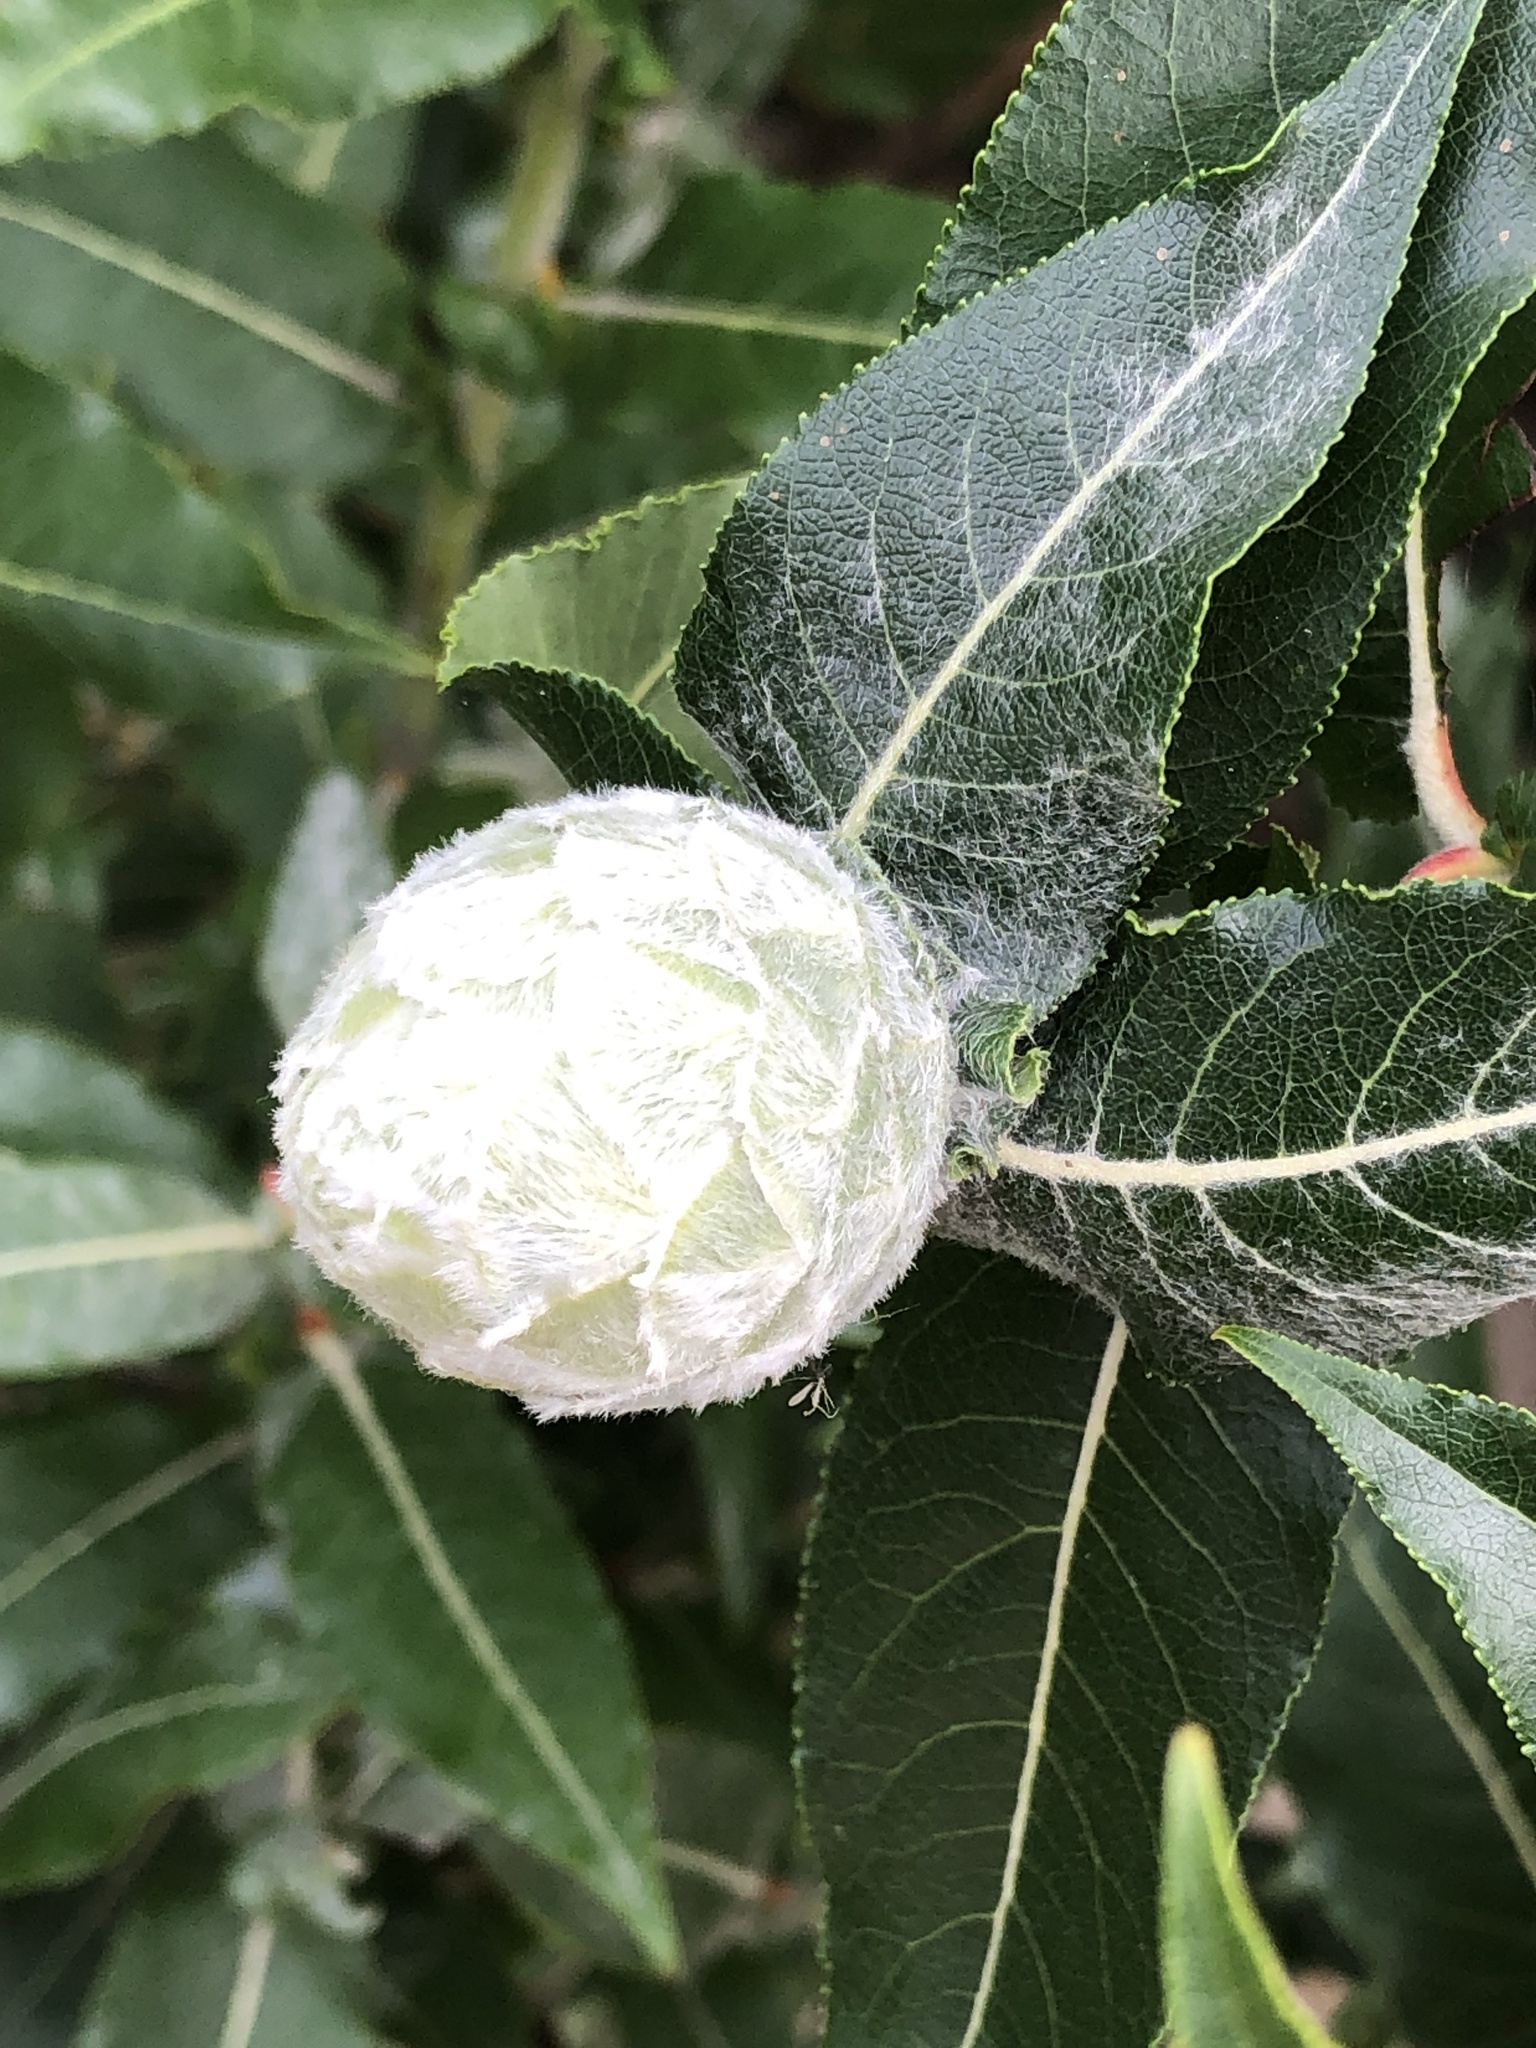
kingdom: Animalia
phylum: Arthropoda
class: Insecta
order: Diptera
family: Cecidomyiidae
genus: Rabdophaga
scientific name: Rabdophaga strobiloides
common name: Willow pinecone gall midge
